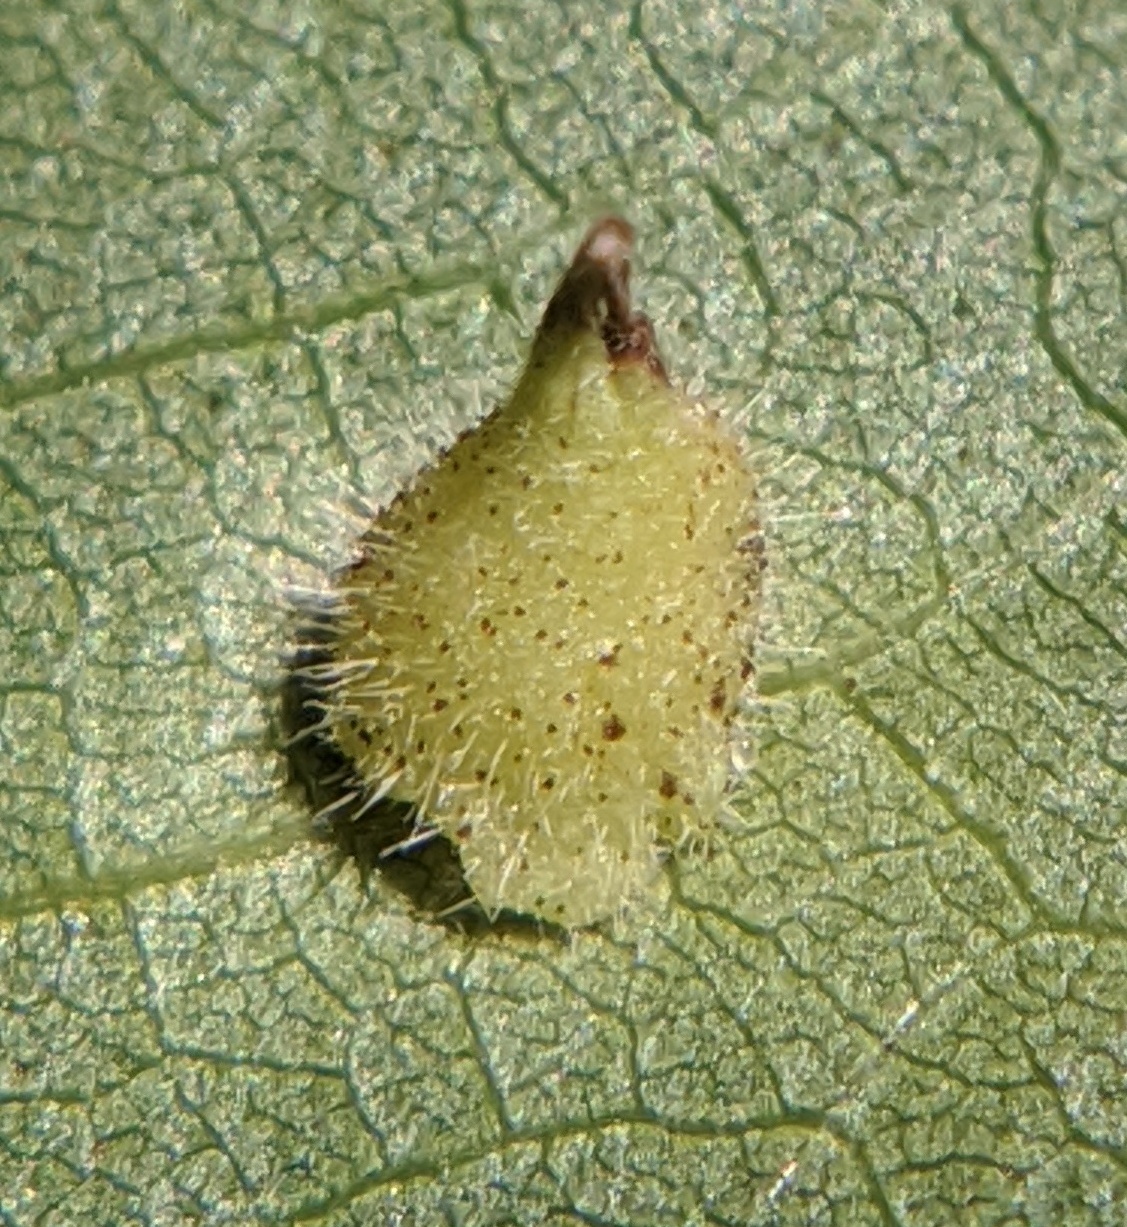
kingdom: Animalia
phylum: Arthropoda
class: Insecta
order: Diptera
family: Cecidomyiidae
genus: Caryomyia
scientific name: Caryomyia inclinata
